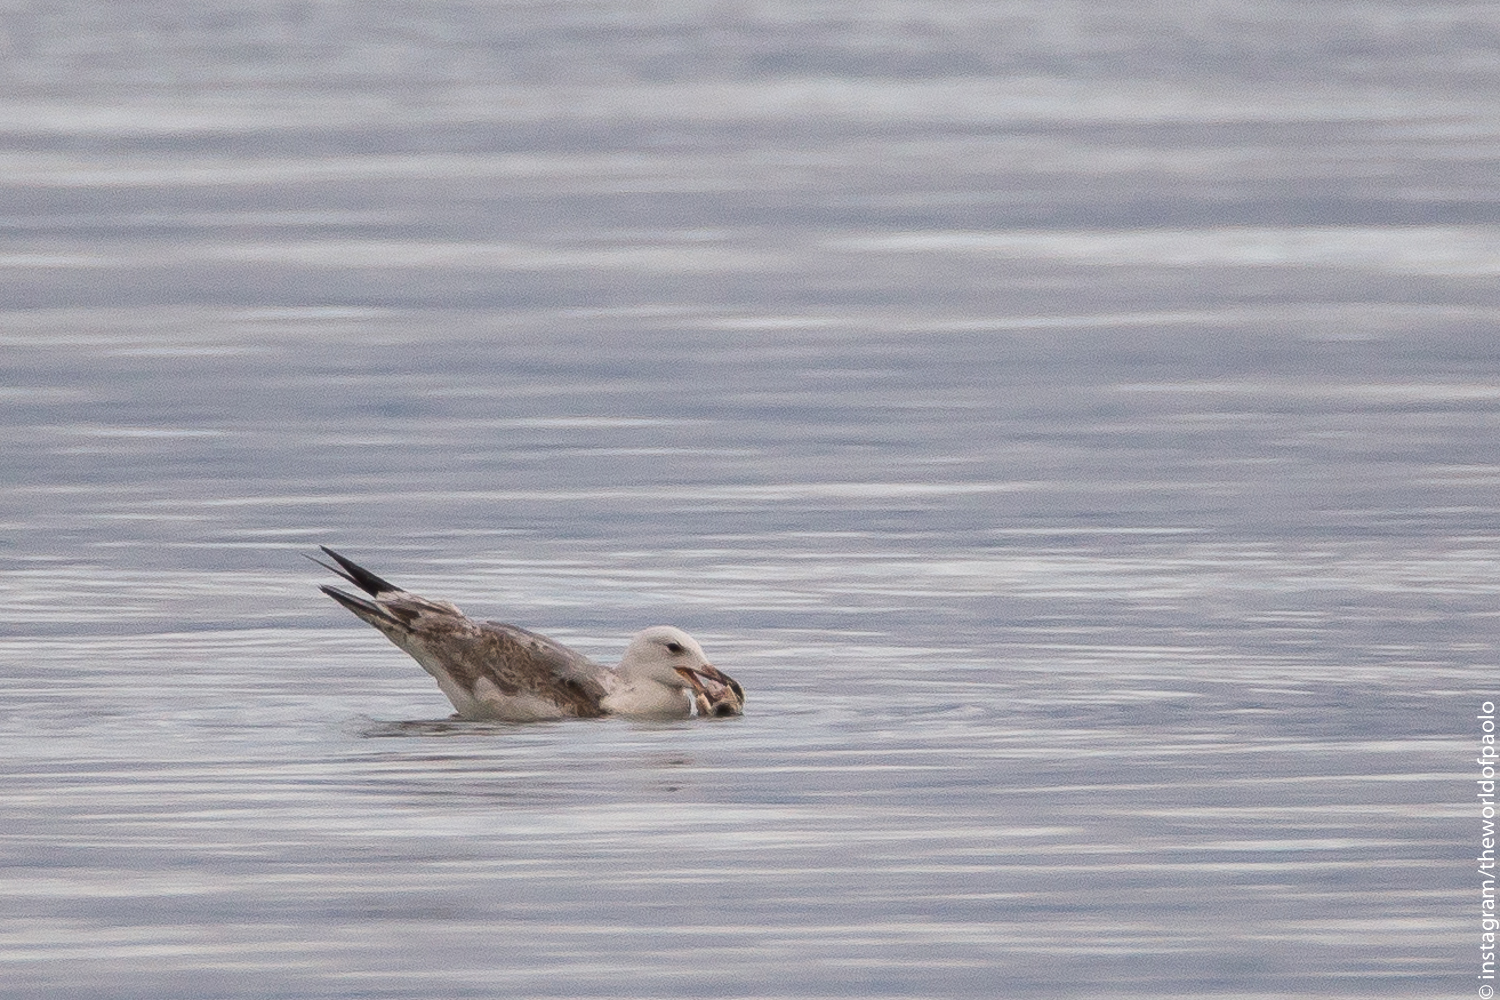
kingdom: Animalia
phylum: Chordata
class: Aves
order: Charadriiformes
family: Laridae
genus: Larus
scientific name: Larus michahellis
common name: Yellow-legged gull
